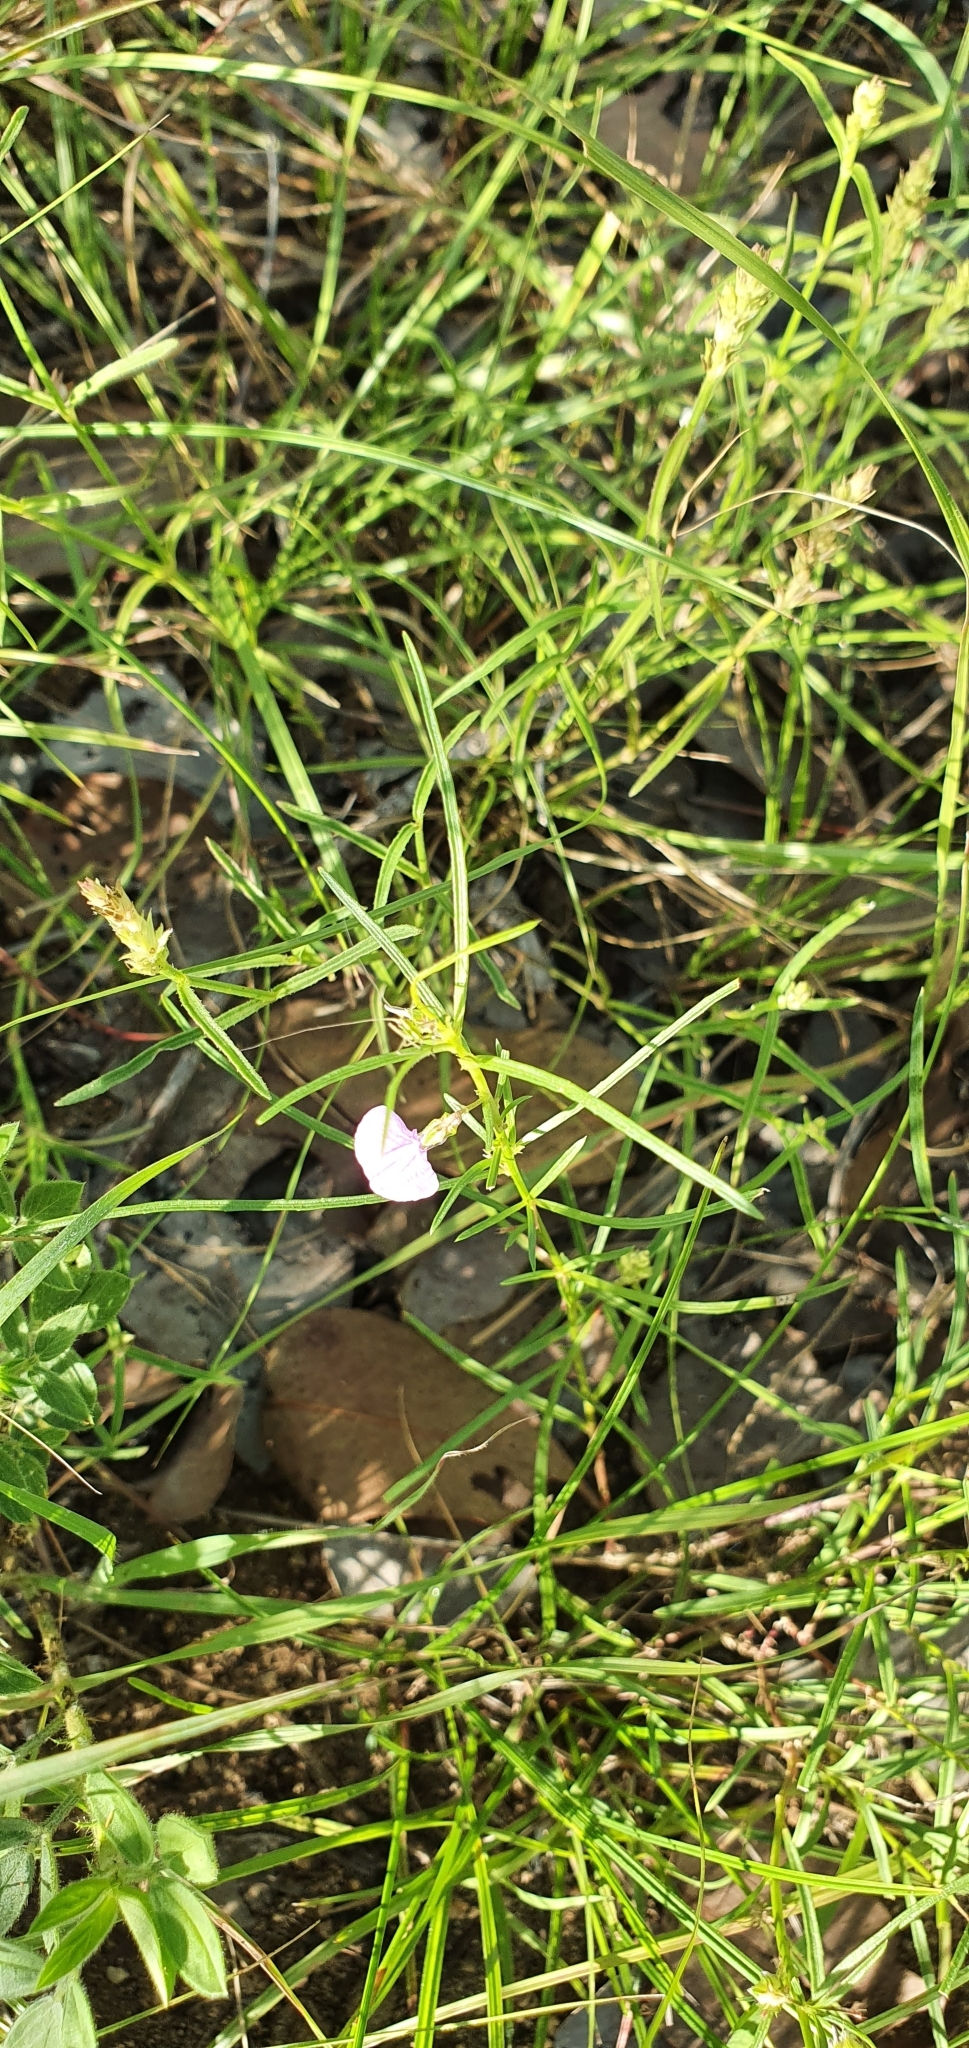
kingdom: Plantae
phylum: Tracheophyta
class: Magnoliopsida
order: Malpighiales
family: Violaceae
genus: Pigea
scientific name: Pigea enneasperma
